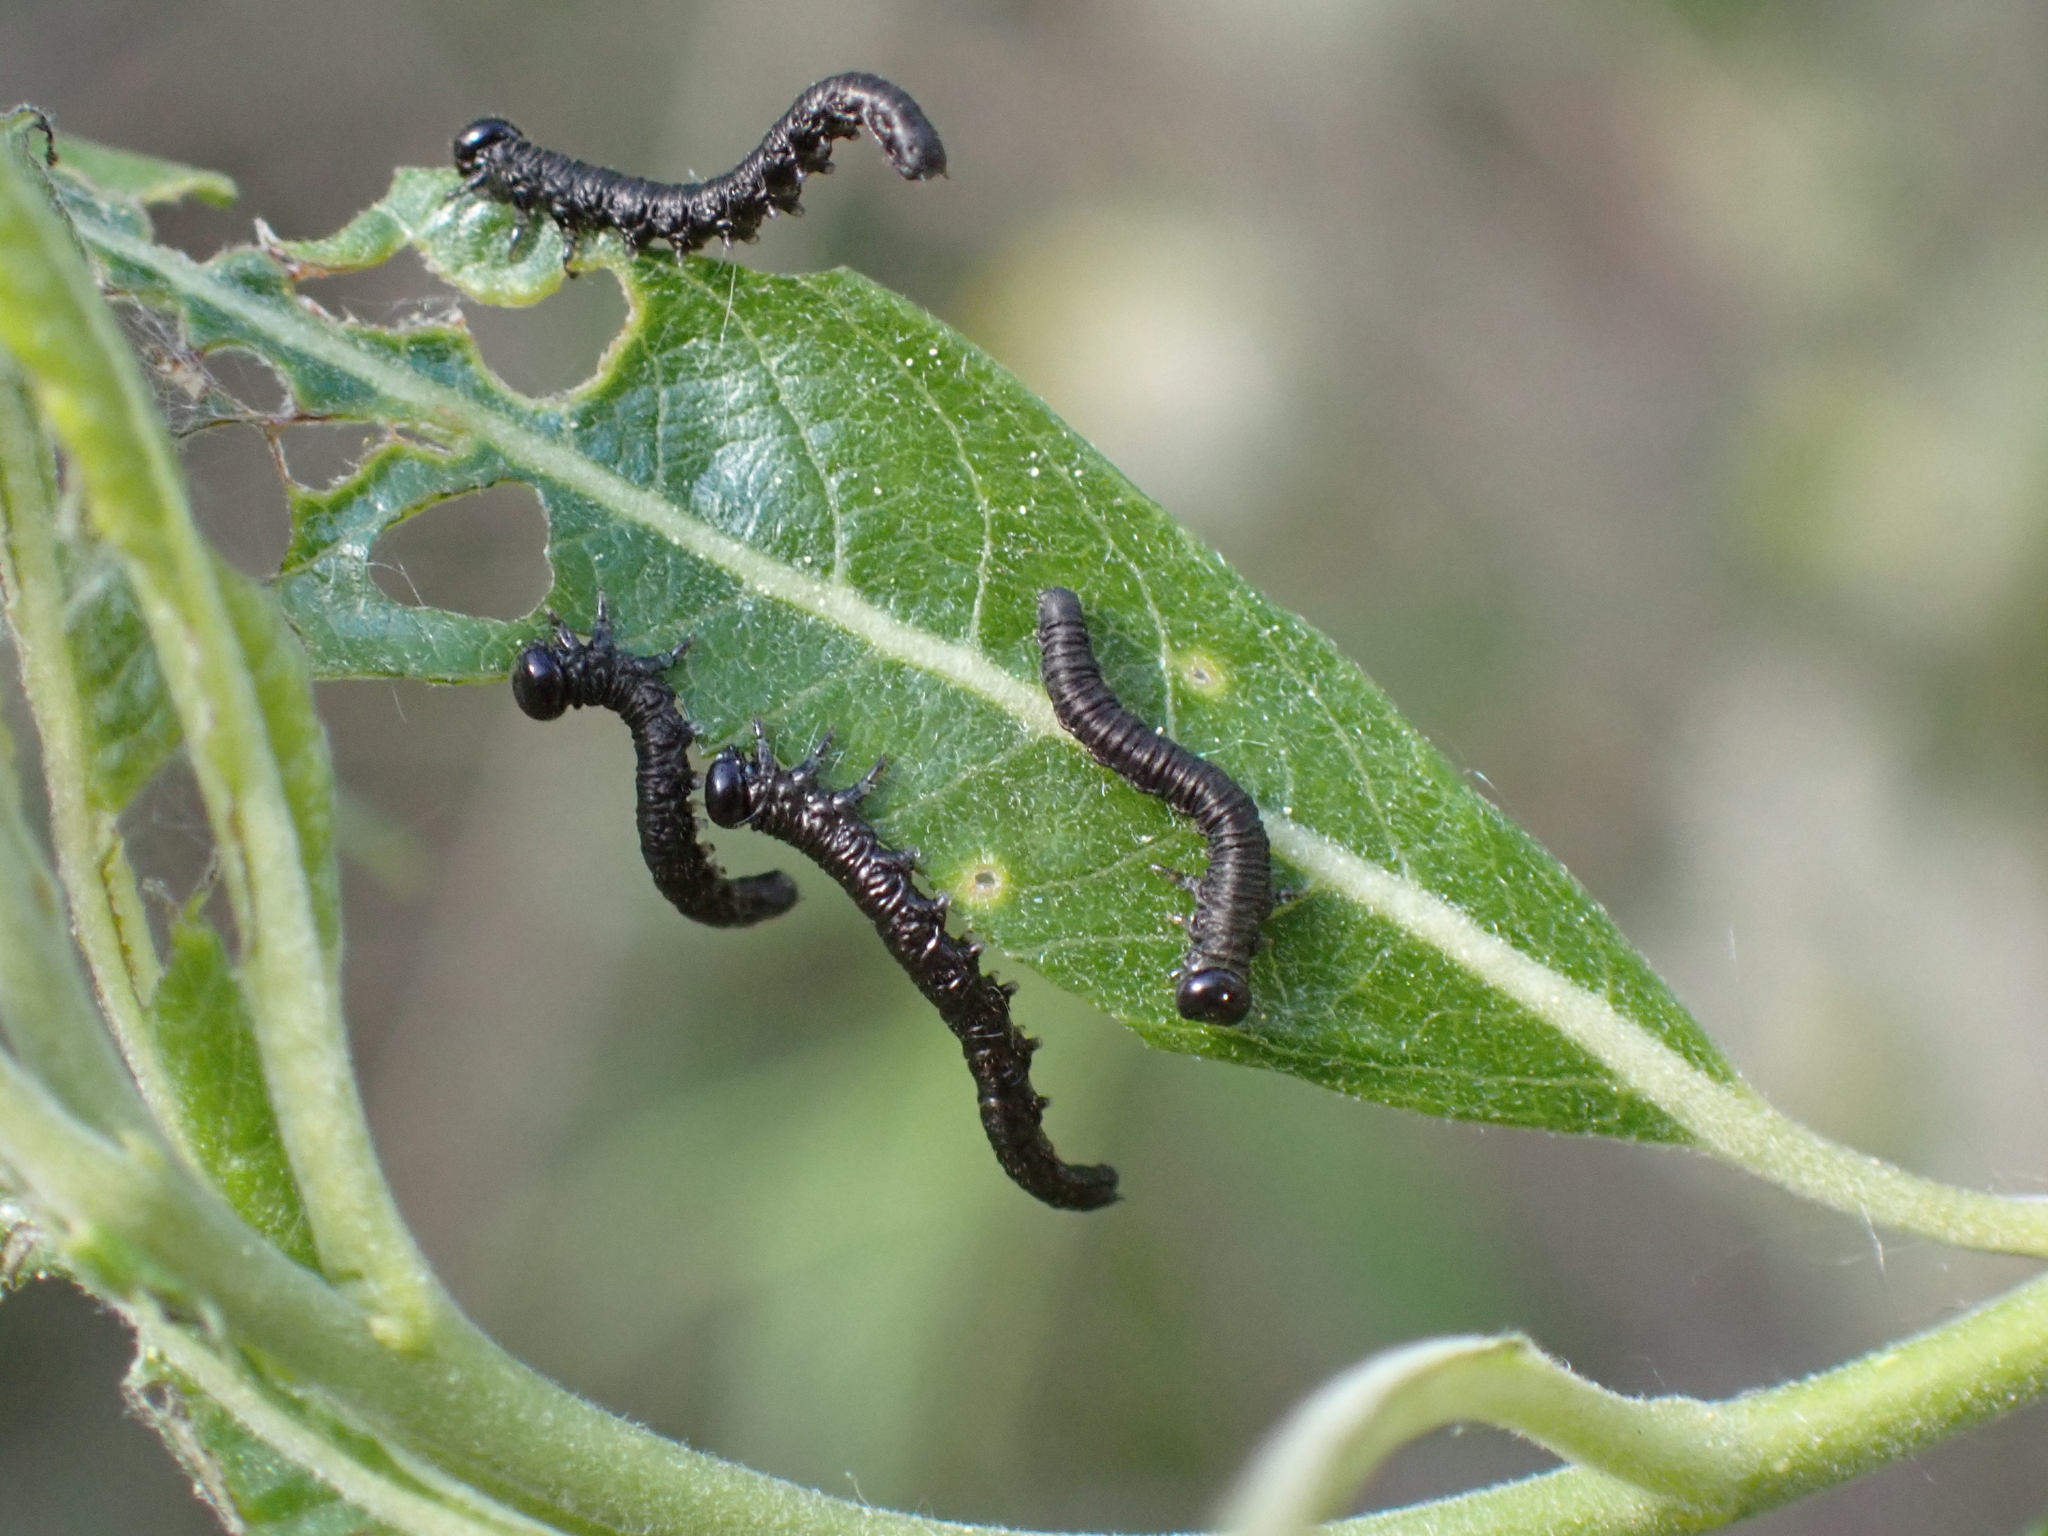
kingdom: Animalia
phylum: Arthropoda
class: Insecta
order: Hymenoptera
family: Tenthredinidae
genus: Amauronematus
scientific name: Amauronematus puniceus
